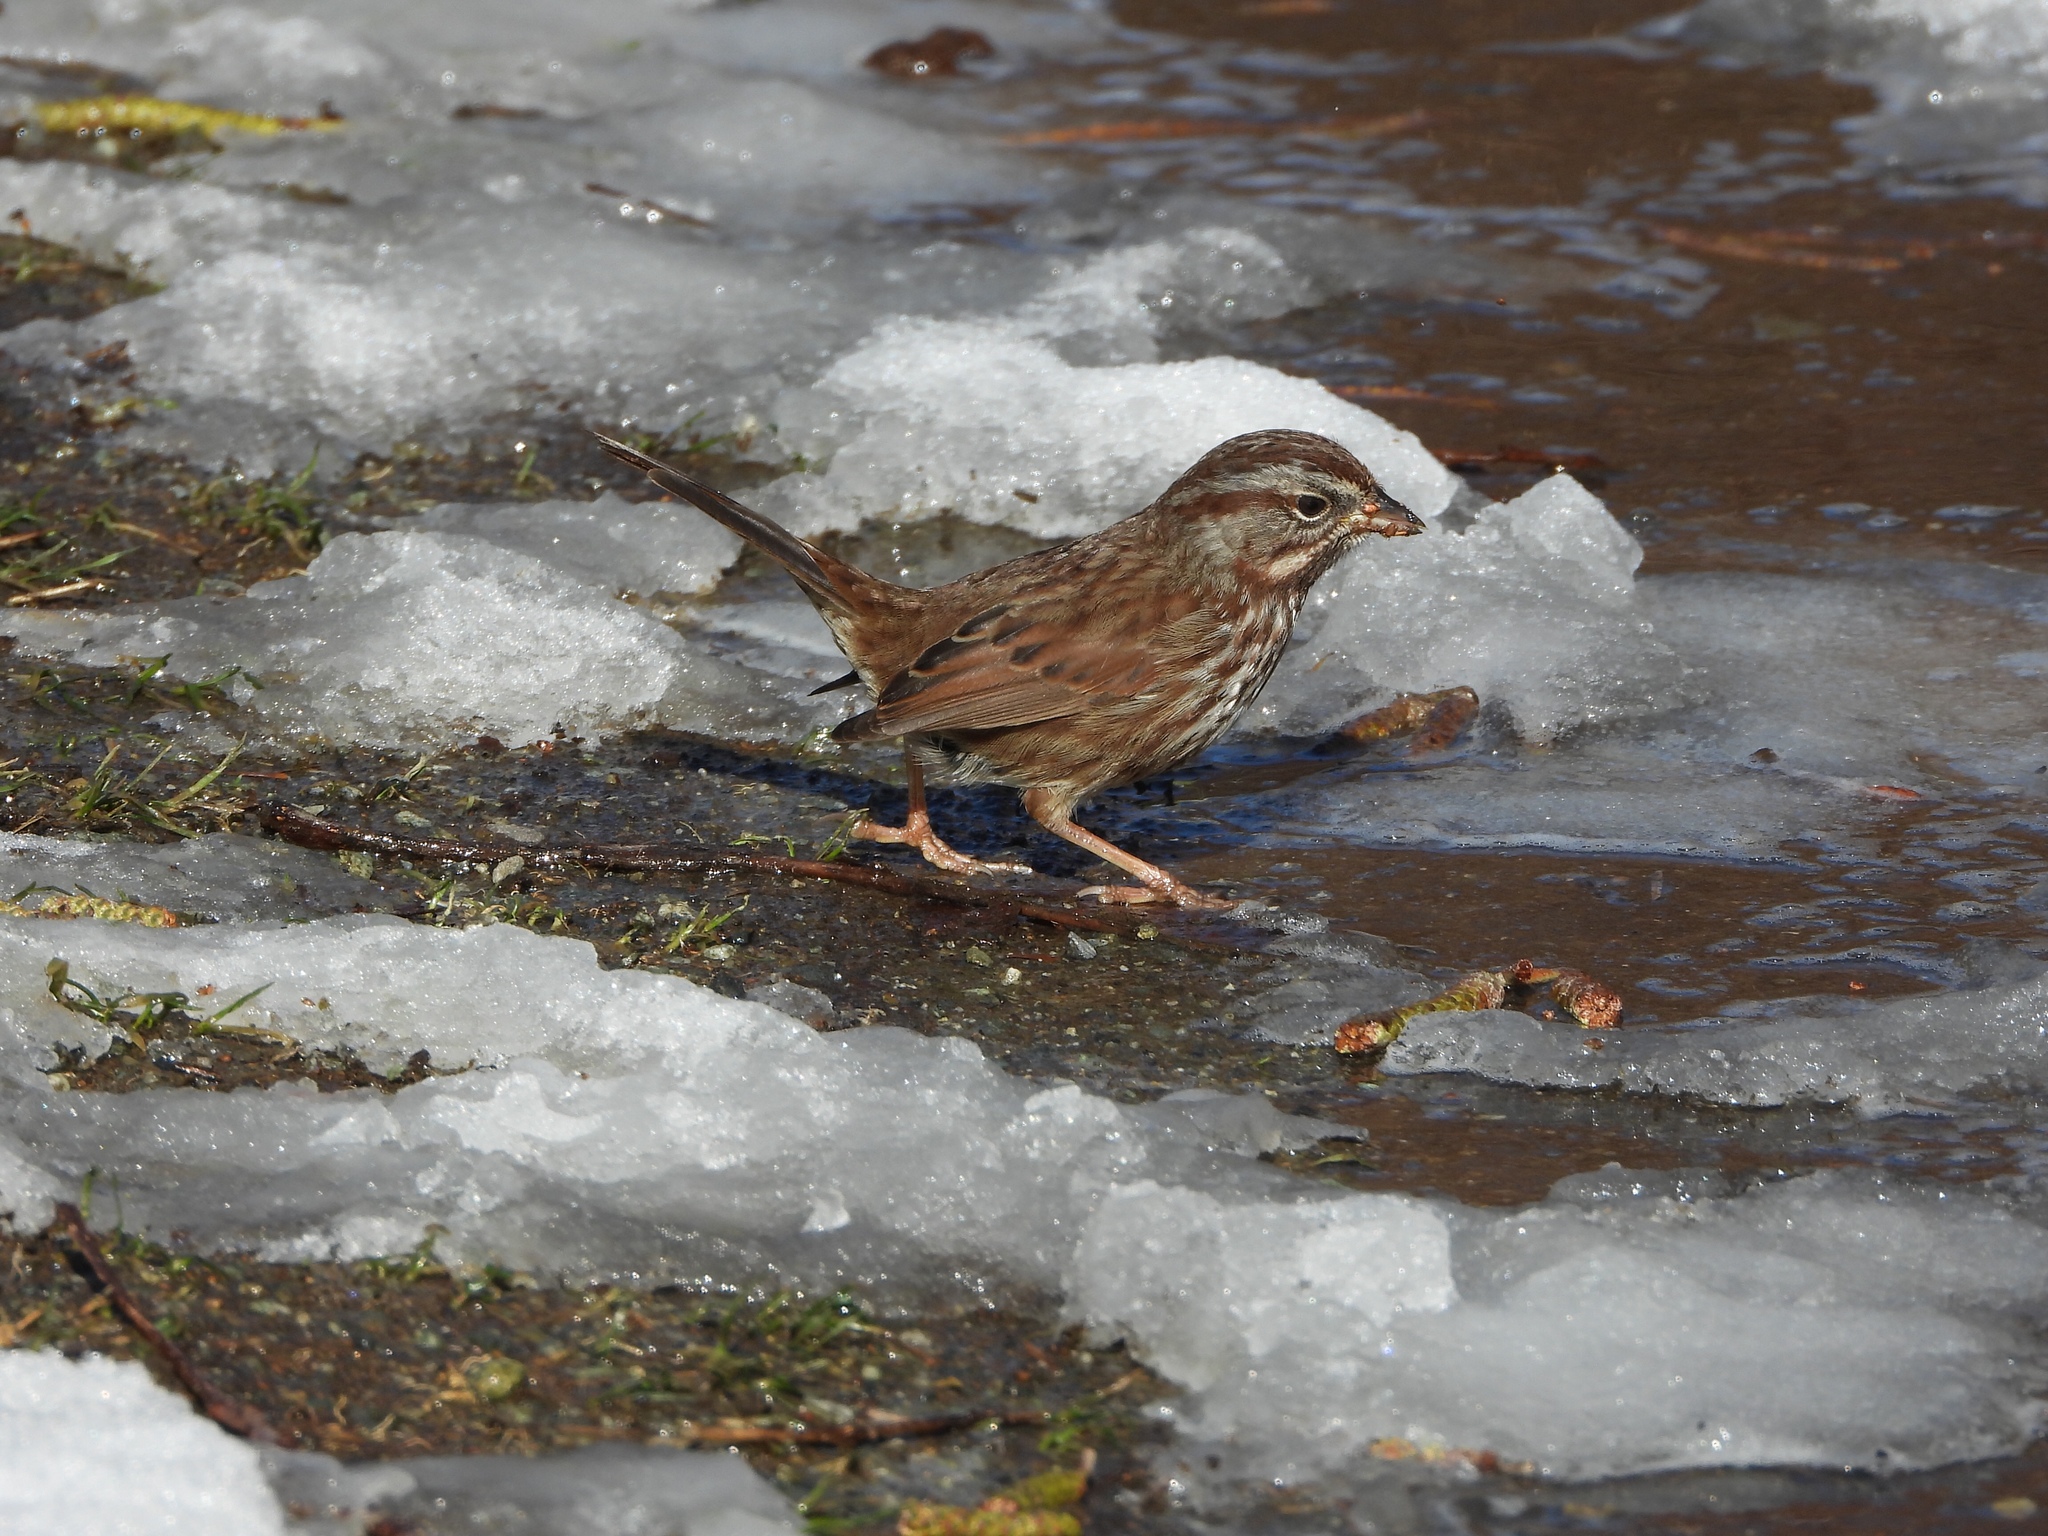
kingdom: Animalia
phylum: Chordata
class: Aves
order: Passeriformes
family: Passerellidae
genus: Melospiza
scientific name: Melospiza melodia
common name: Song sparrow
